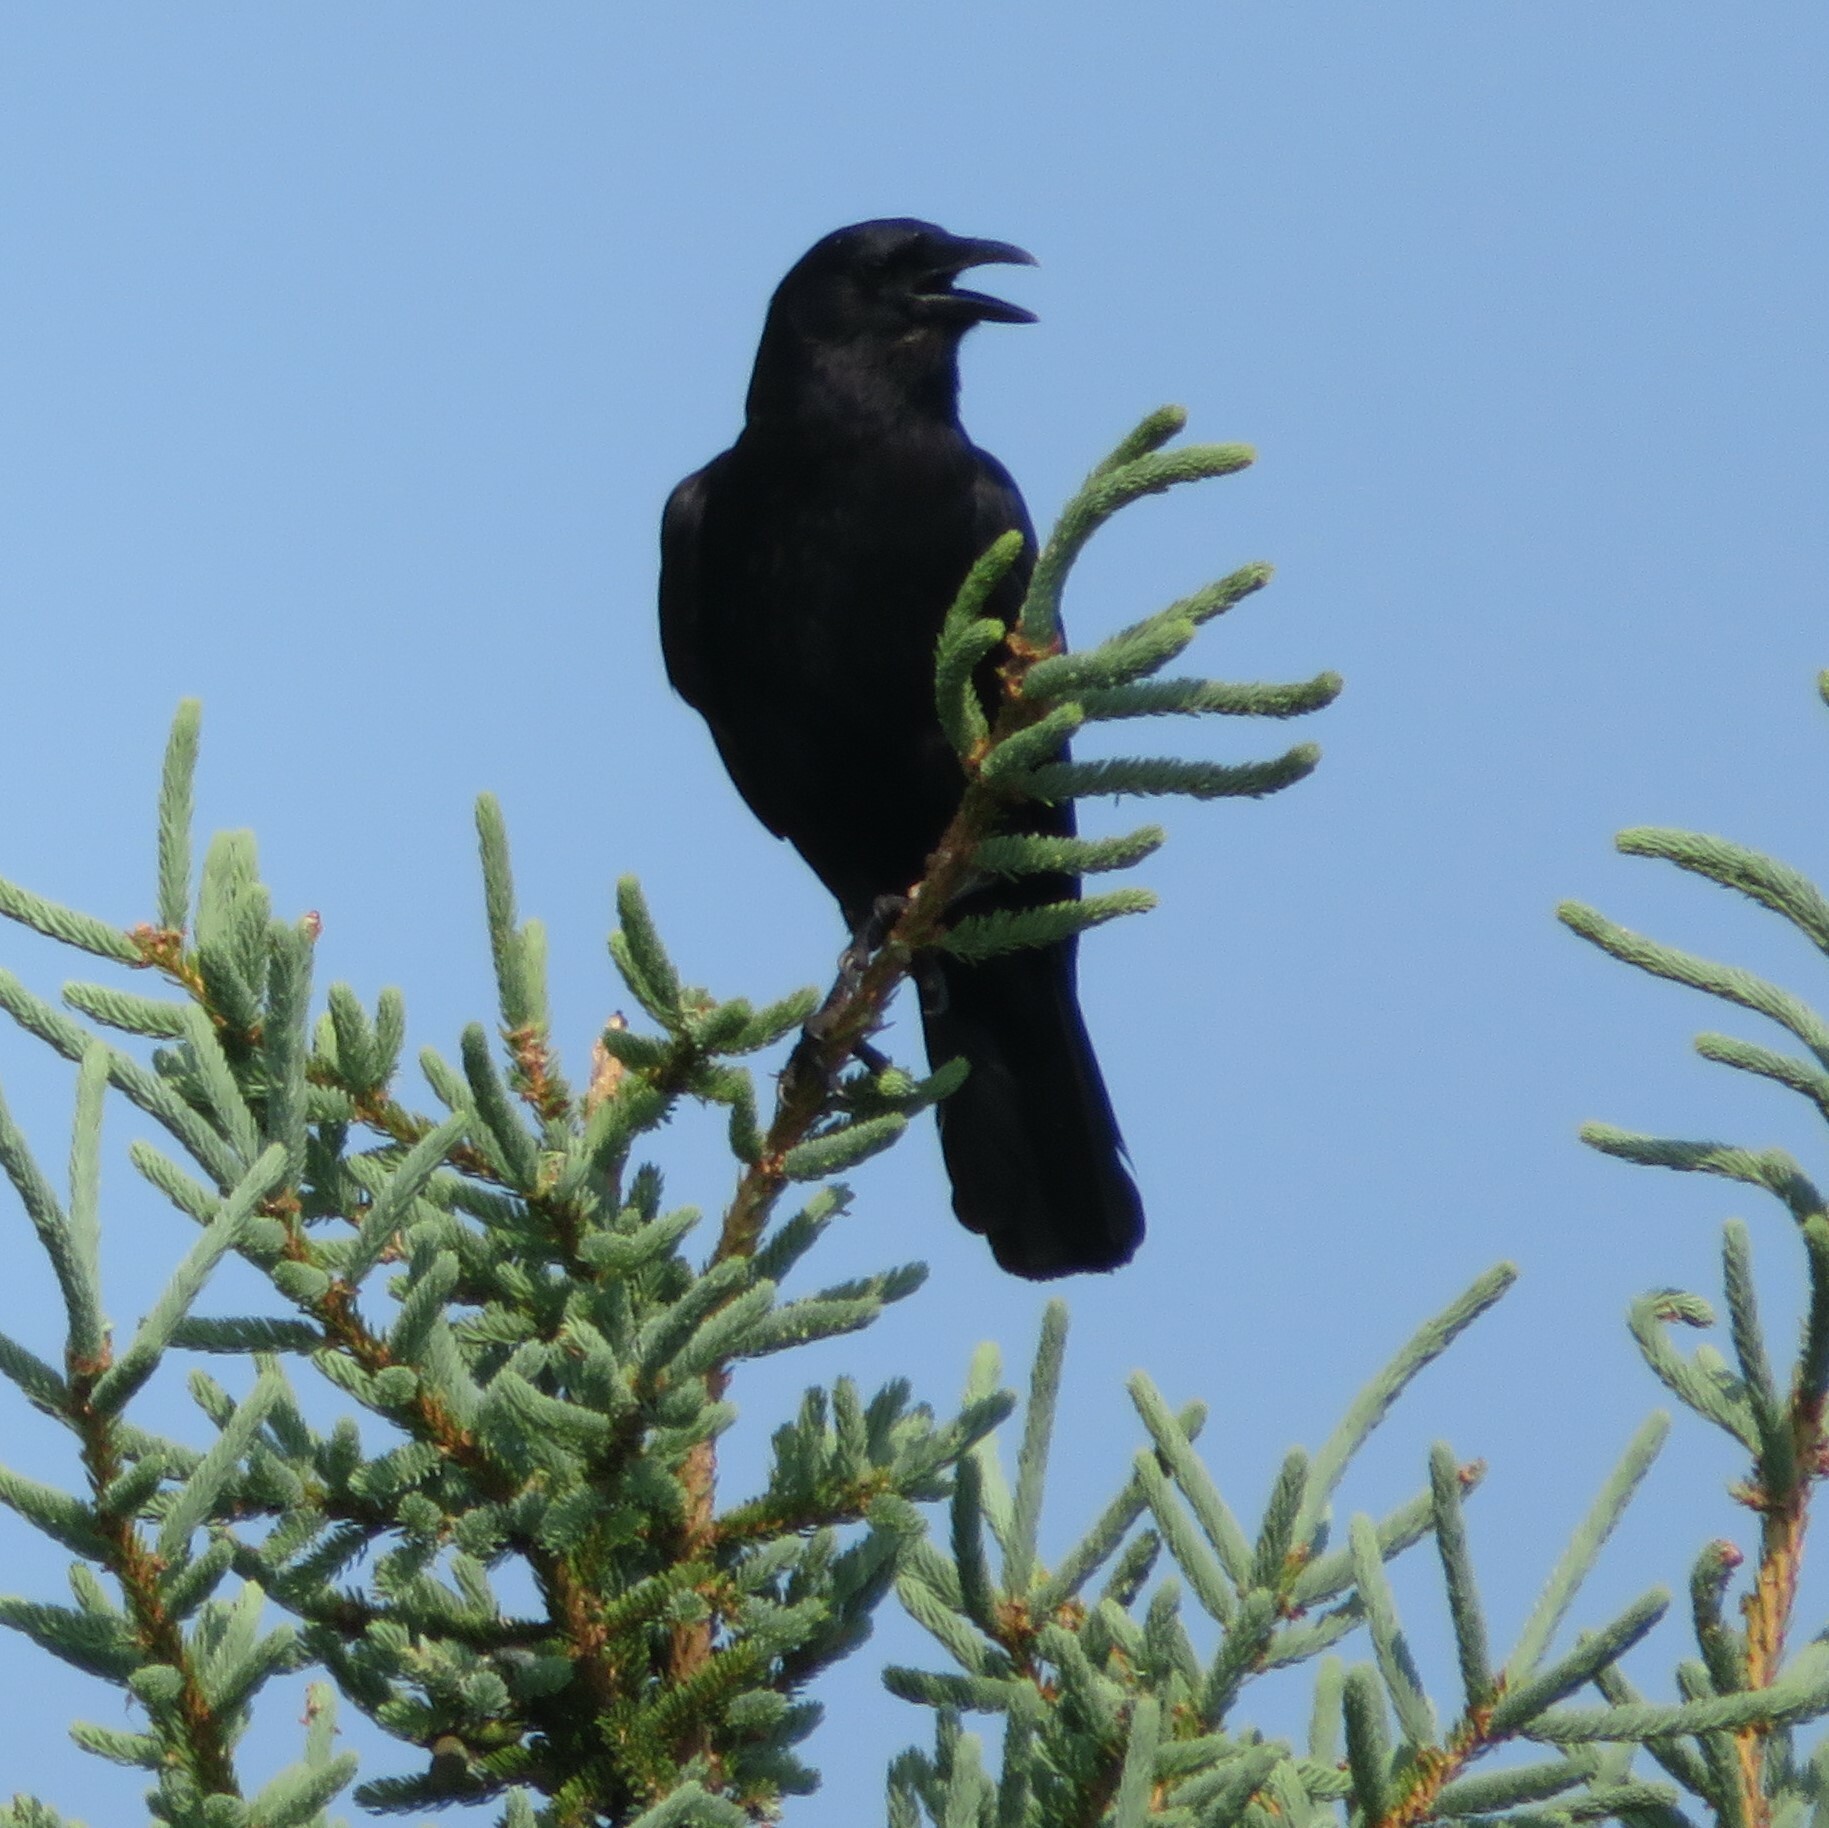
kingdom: Animalia
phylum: Chordata
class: Aves
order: Passeriformes
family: Corvidae
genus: Corvus
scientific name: Corvus brachyrhynchos
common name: American crow
